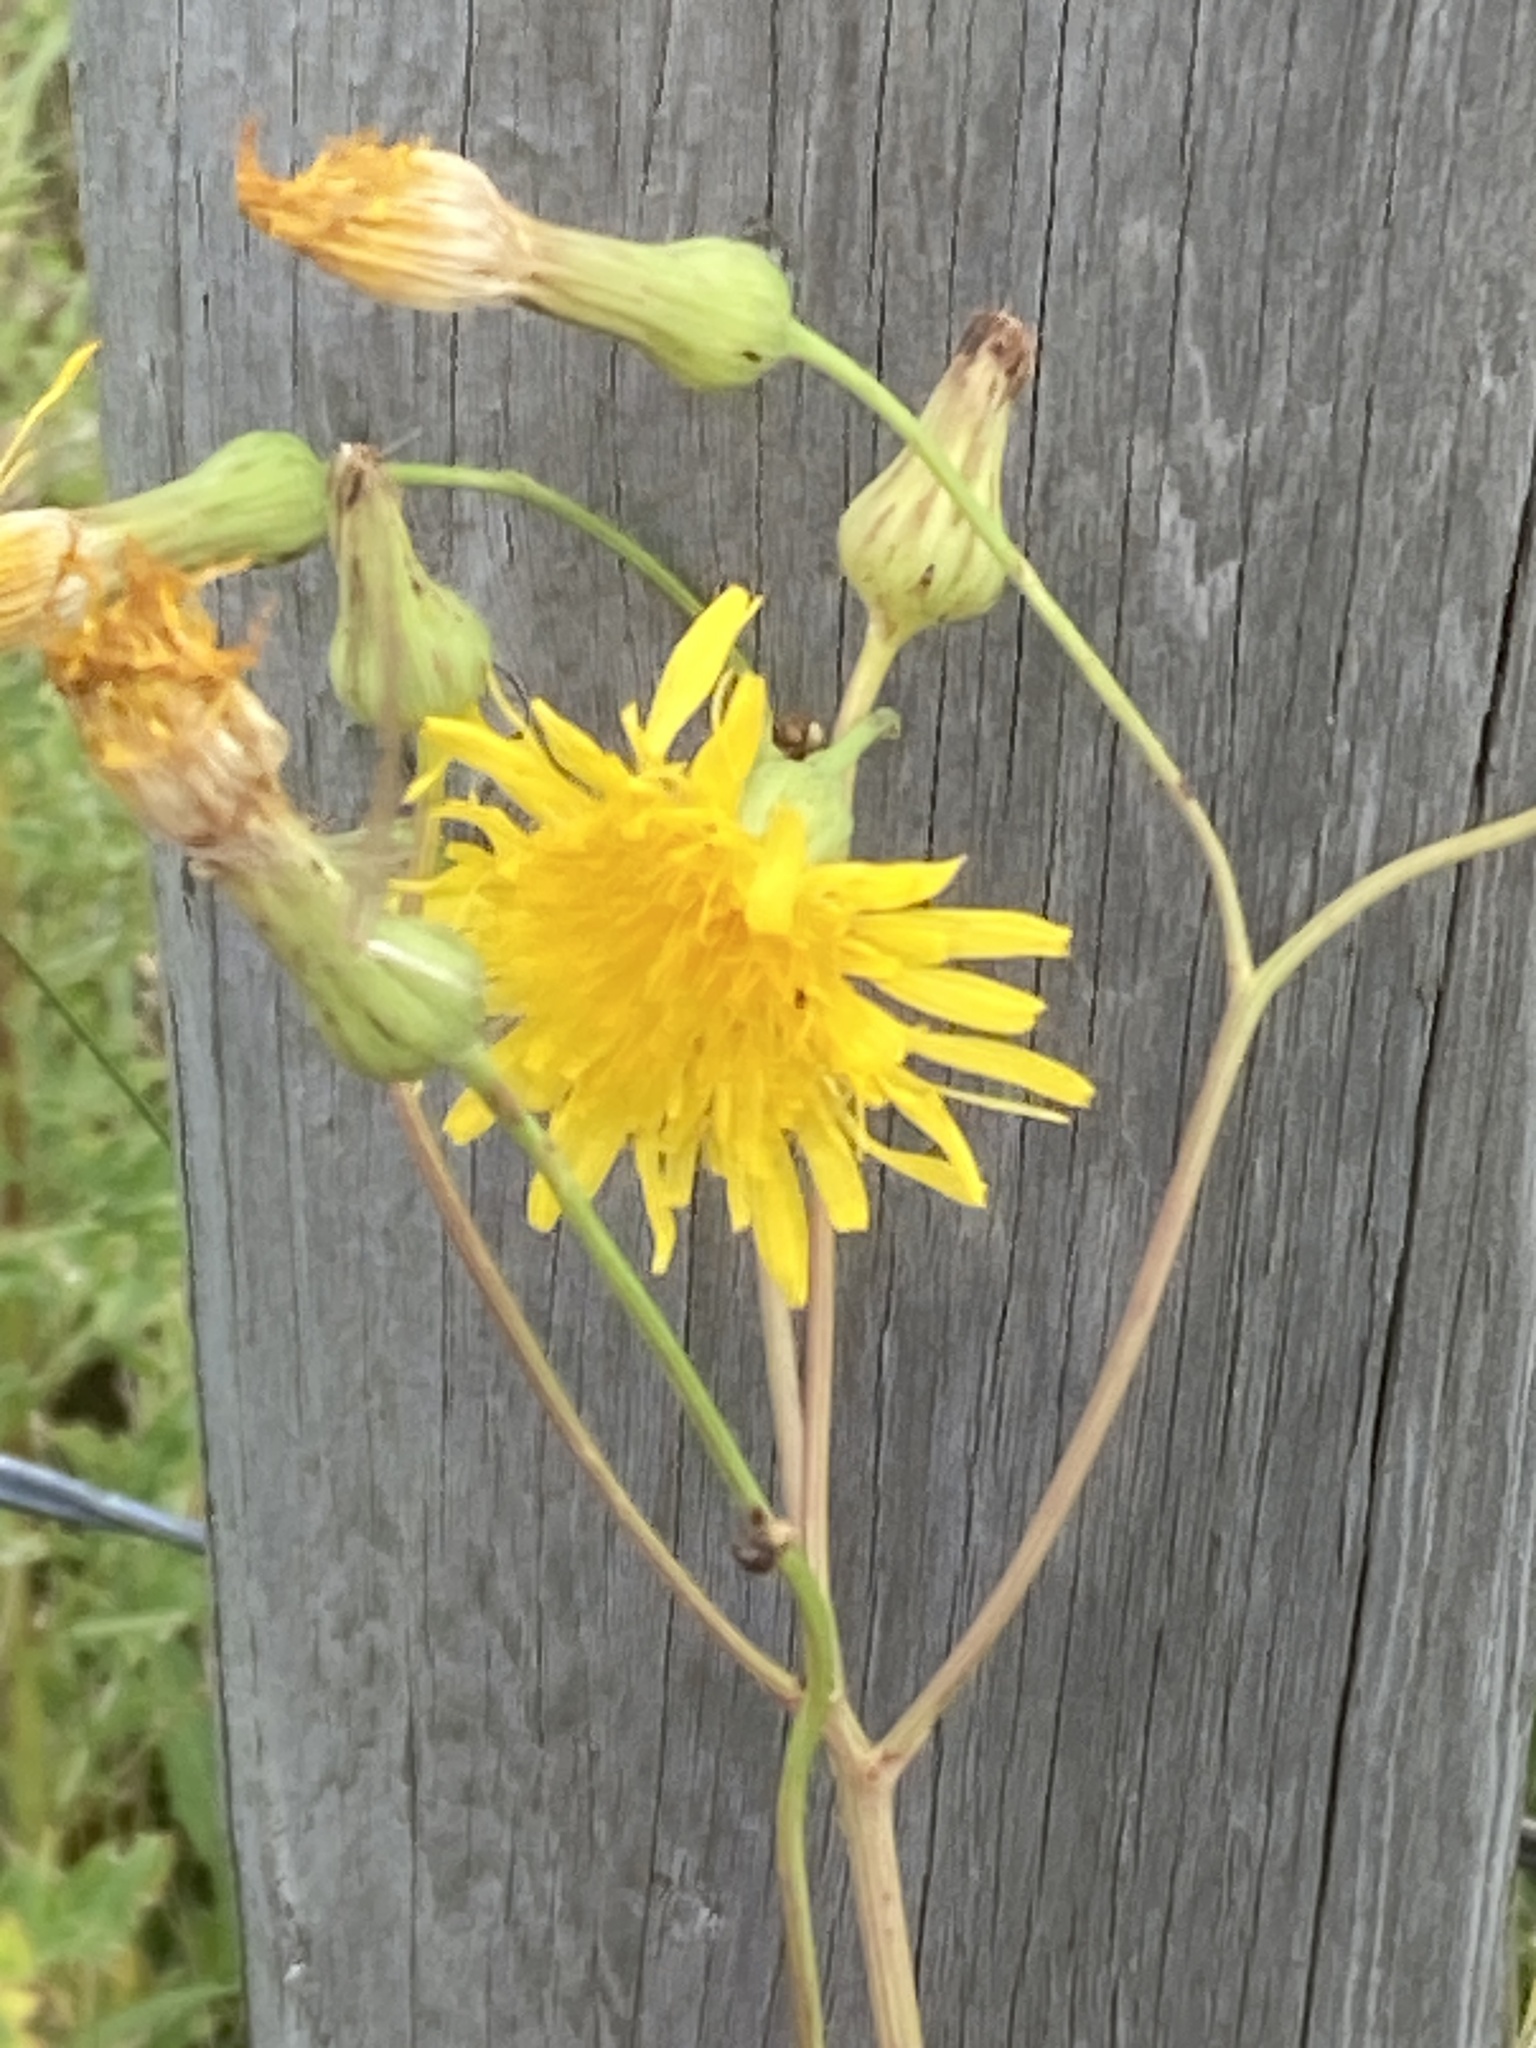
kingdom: Plantae
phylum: Tracheophyta
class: Magnoliopsida
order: Asterales
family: Asteraceae
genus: Sonchus
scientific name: Sonchus arvensis
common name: Perennial sow-thistle
